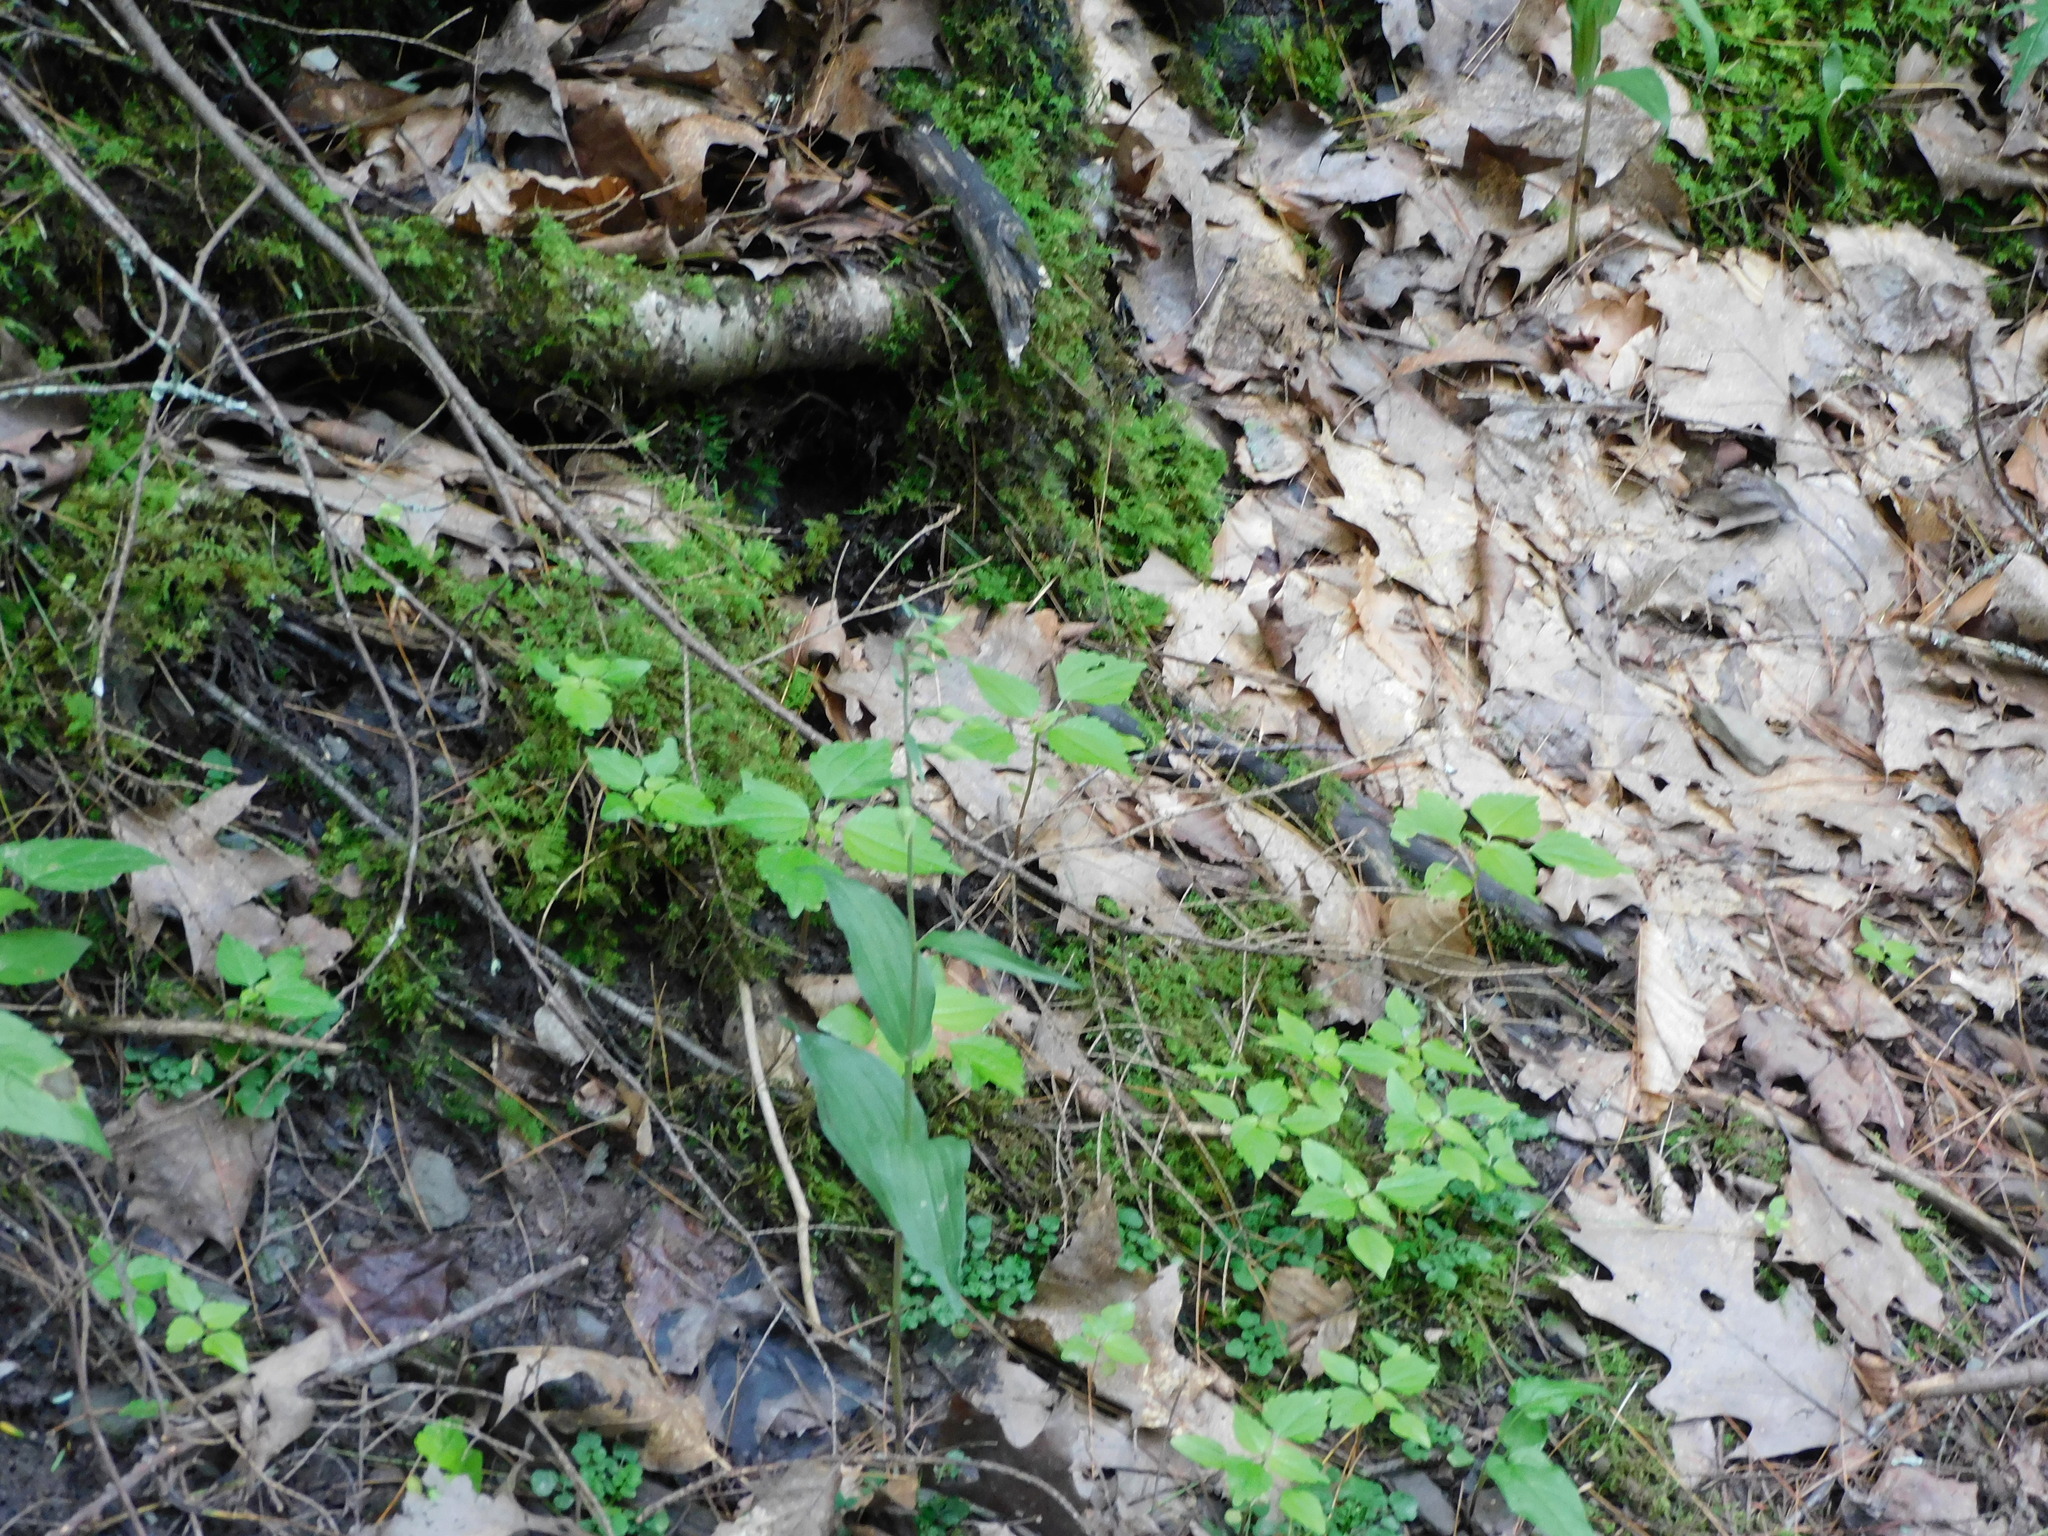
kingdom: Plantae
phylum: Tracheophyta
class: Liliopsida
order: Asparagales
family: Orchidaceae
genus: Epipactis
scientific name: Epipactis helleborine
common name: Broad-leaved helleborine
